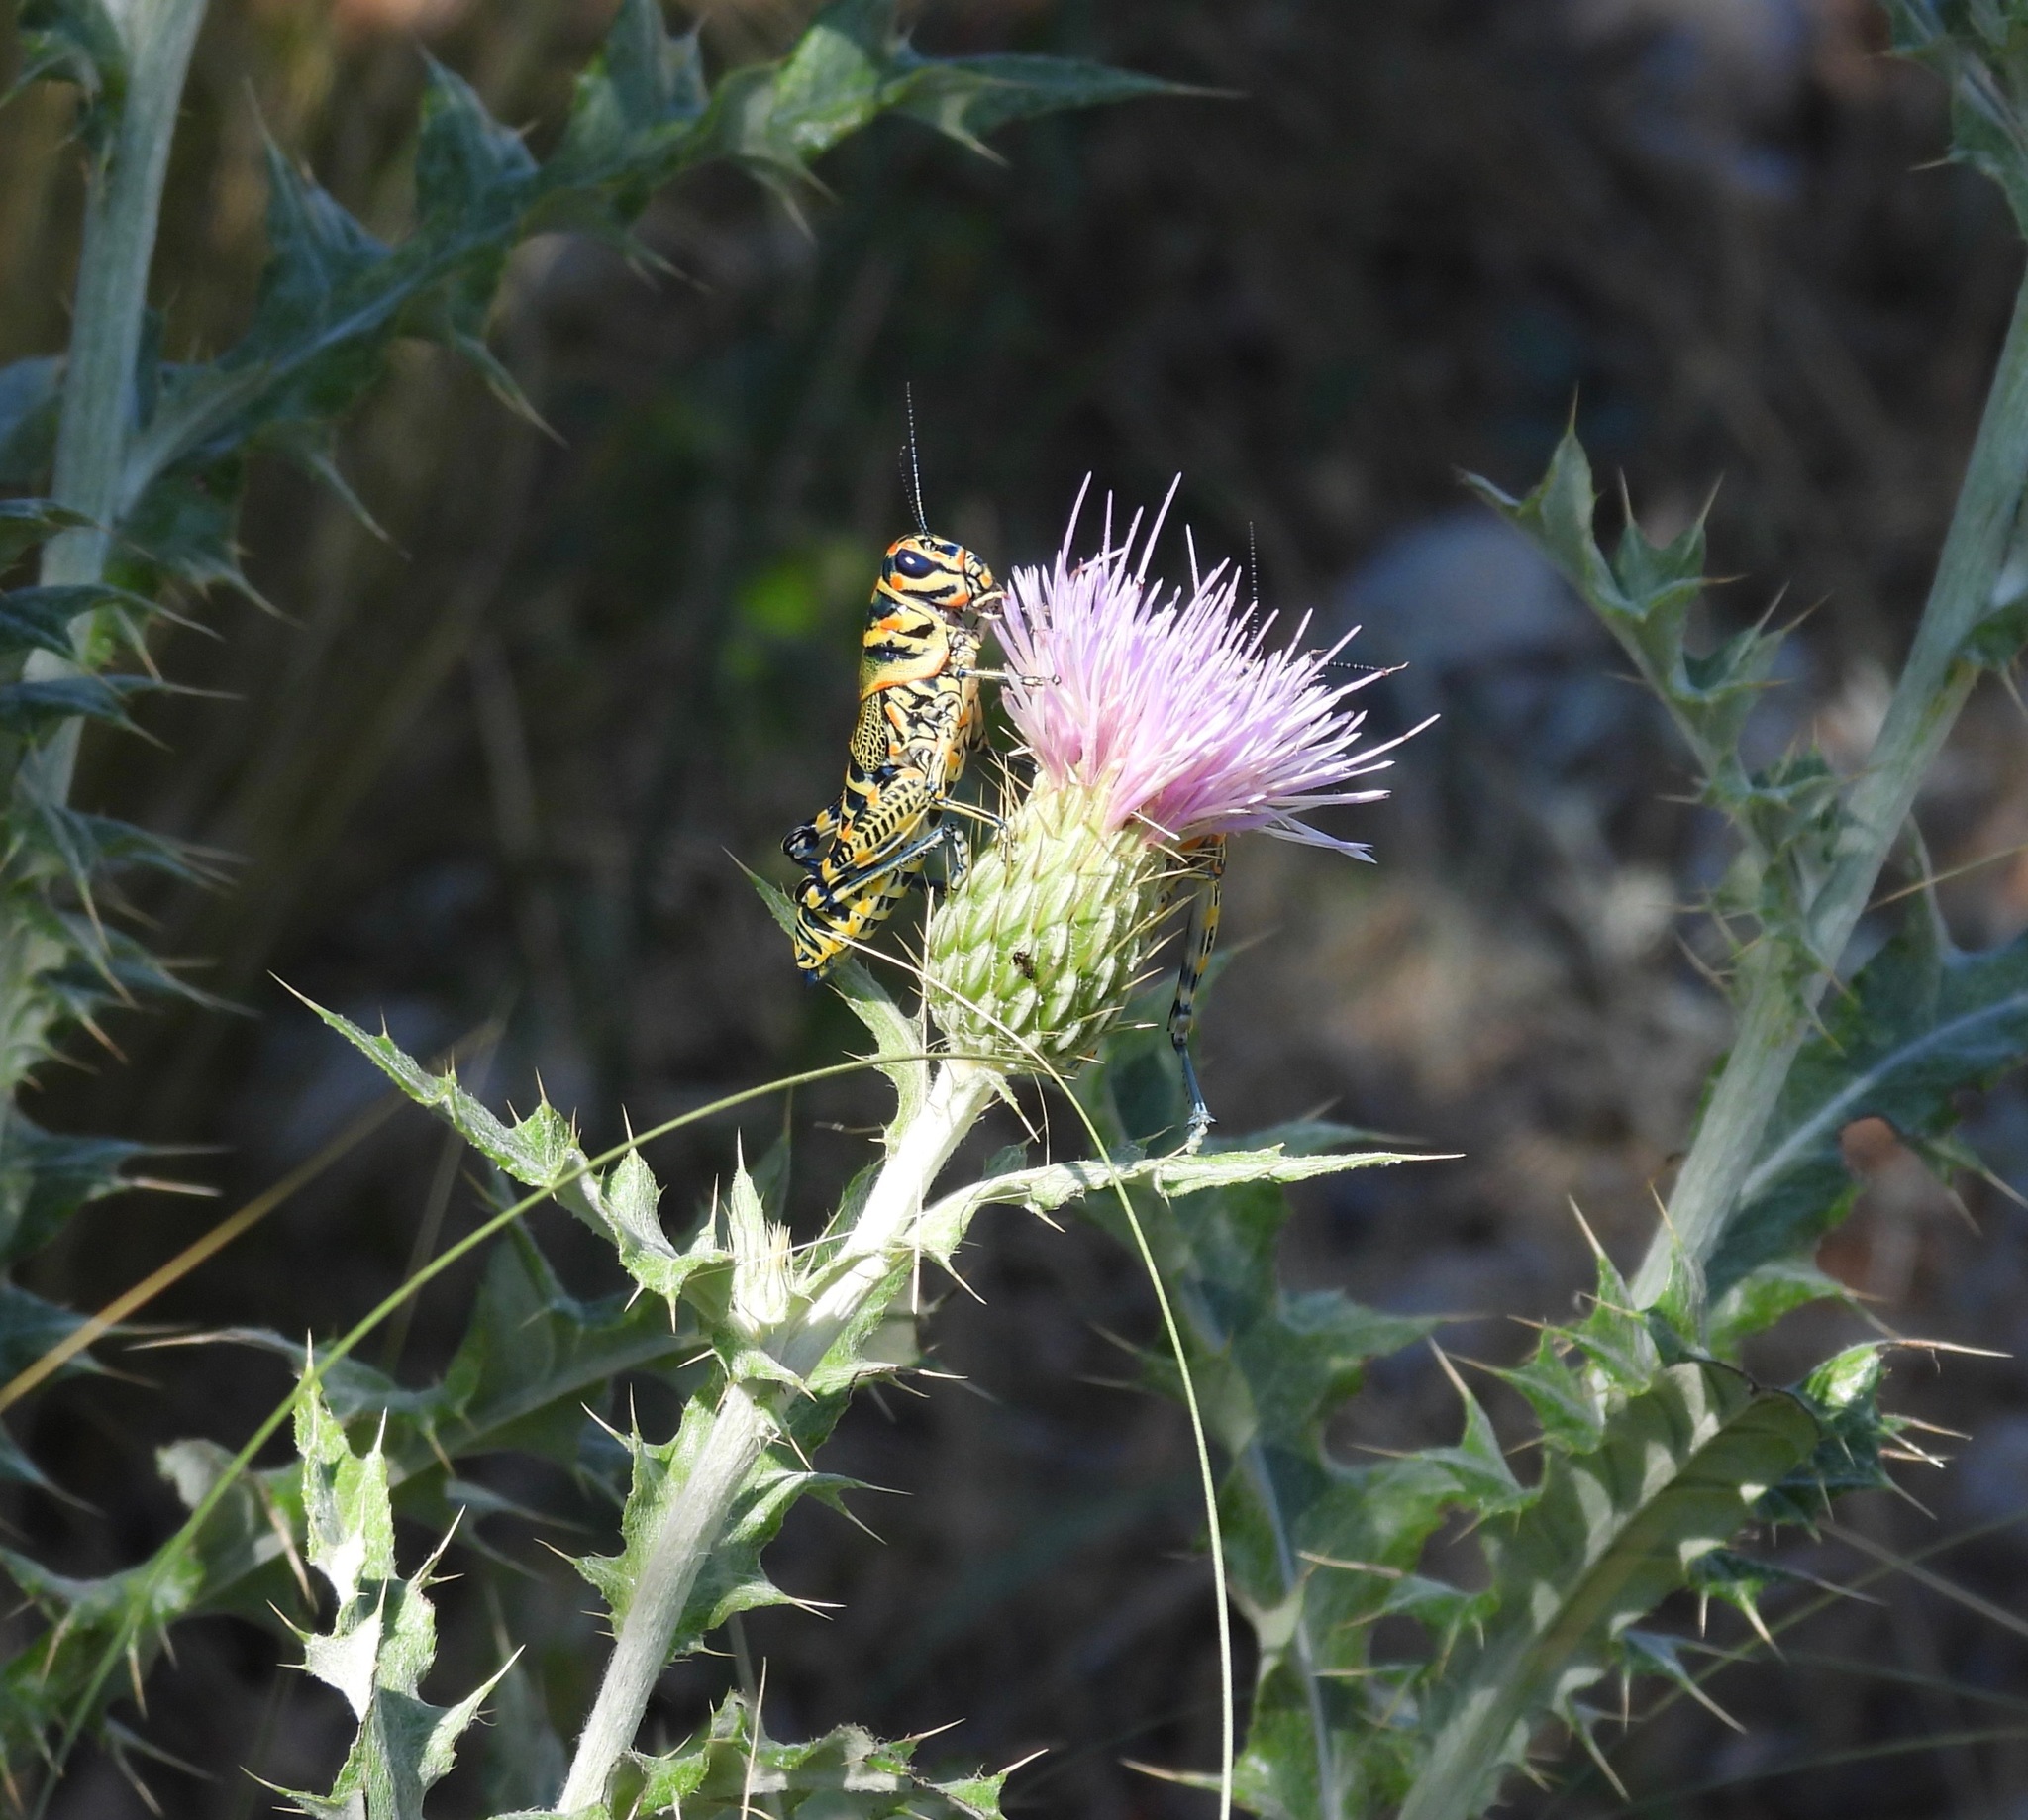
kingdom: Animalia
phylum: Arthropoda
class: Insecta
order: Orthoptera
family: Acrididae
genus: Dactylotum
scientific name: Dactylotum bicolor
